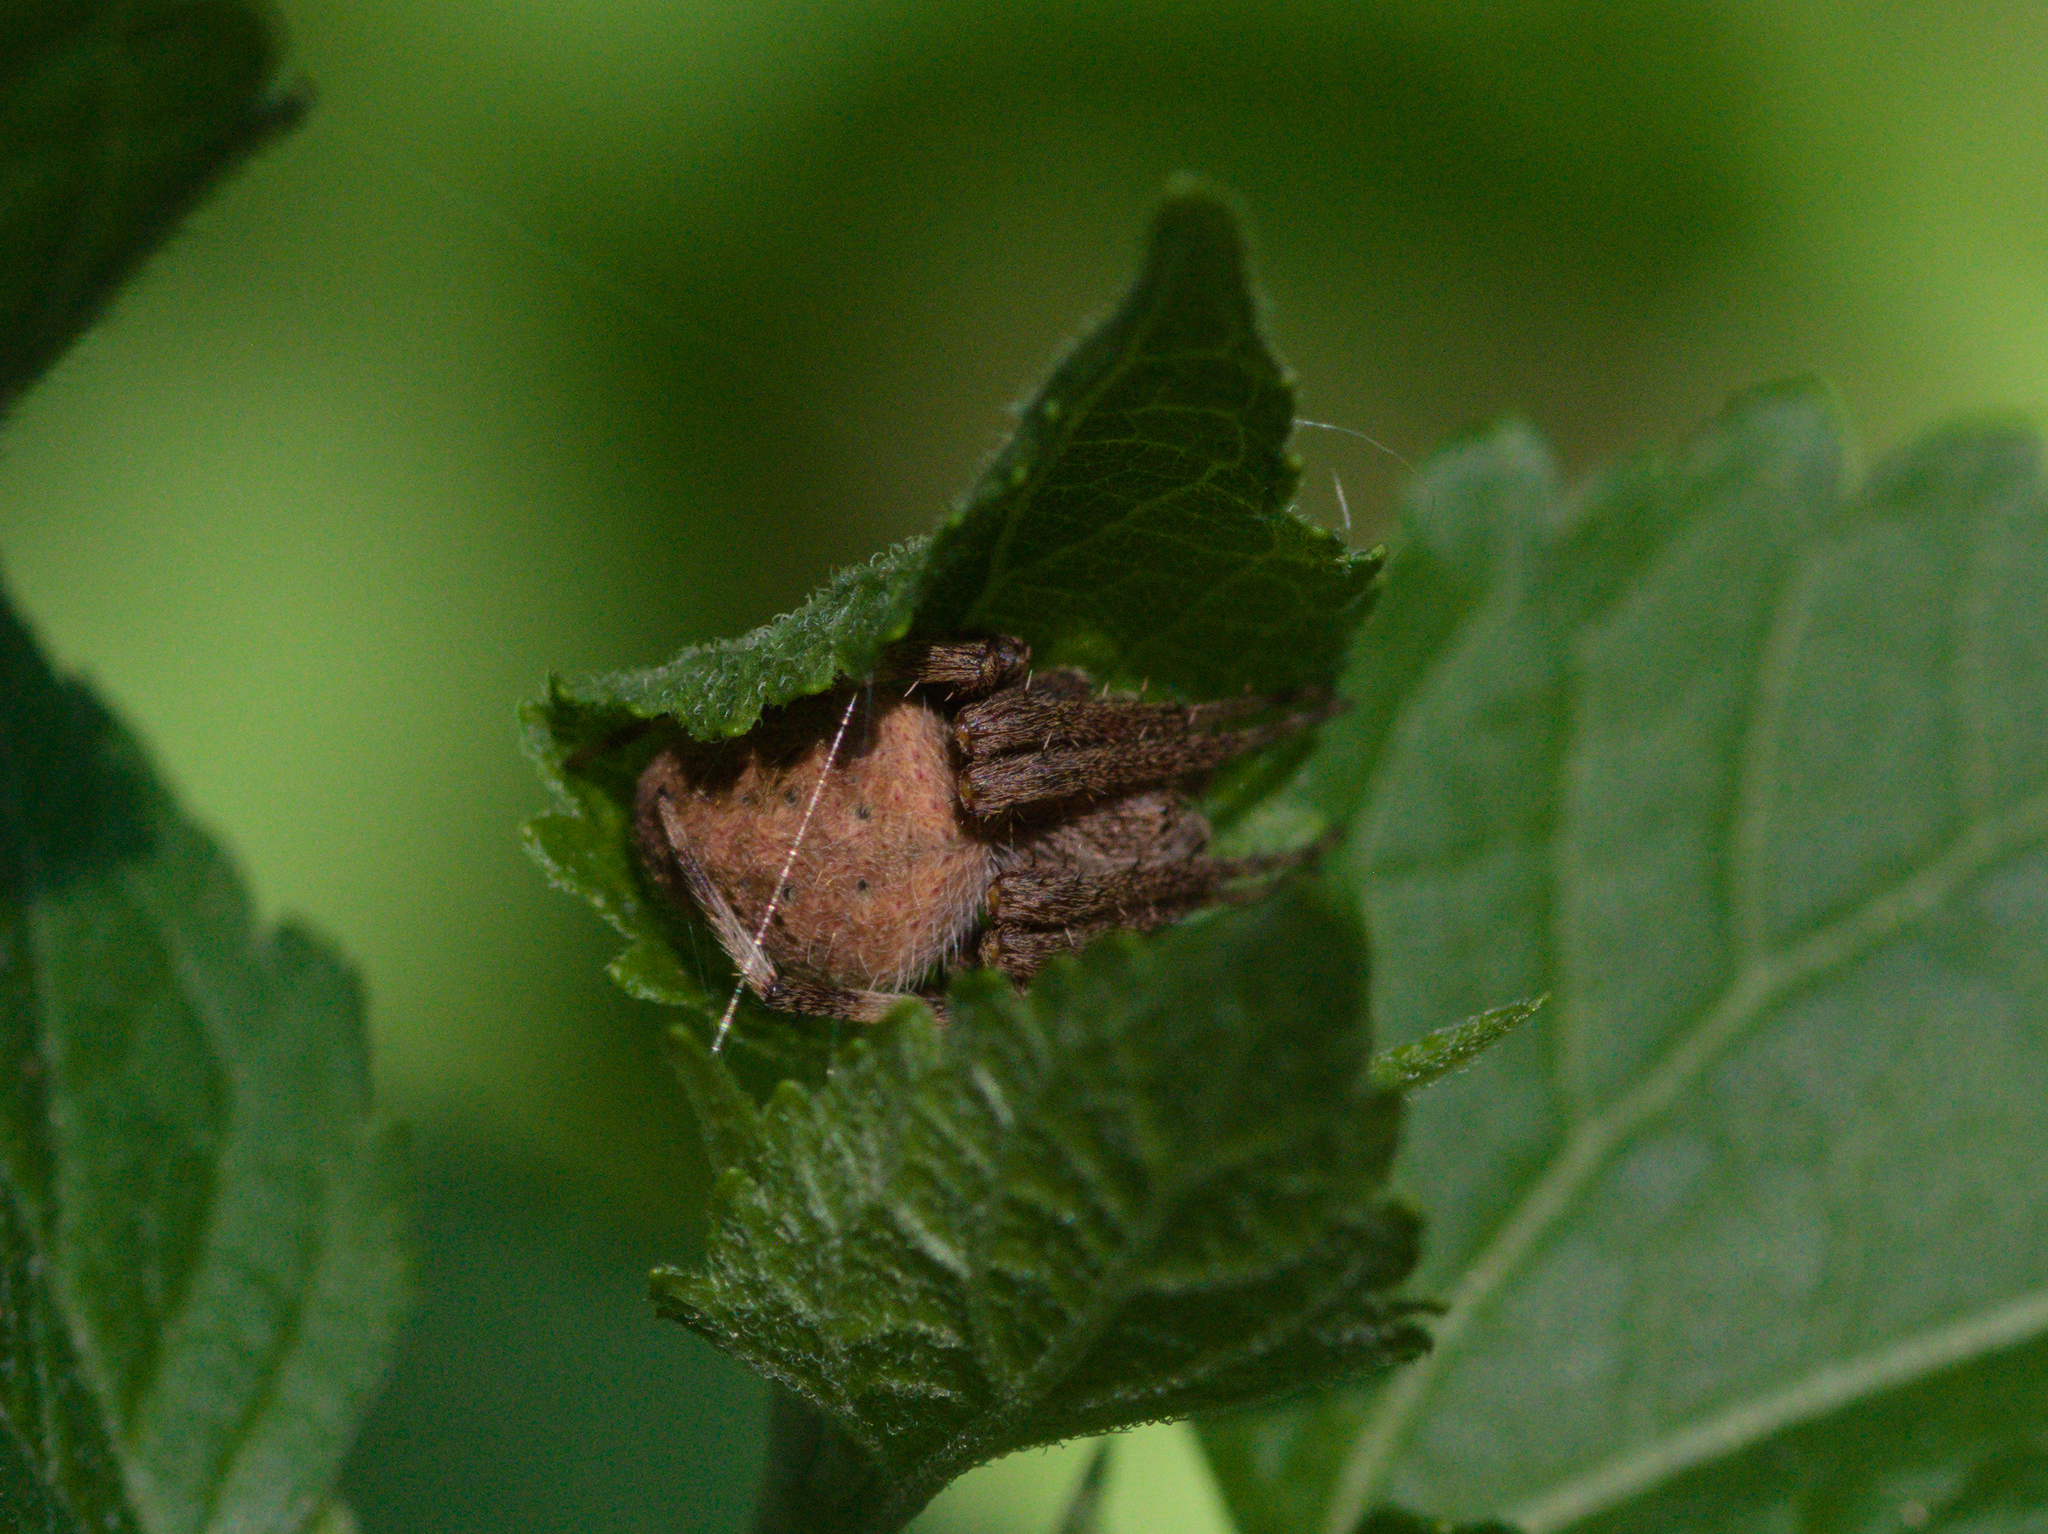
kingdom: Animalia
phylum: Arthropoda
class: Arachnida
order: Araneae
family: Araneidae
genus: Neoscona
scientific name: Neoscona crucifera
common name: Spotted orbweaver
